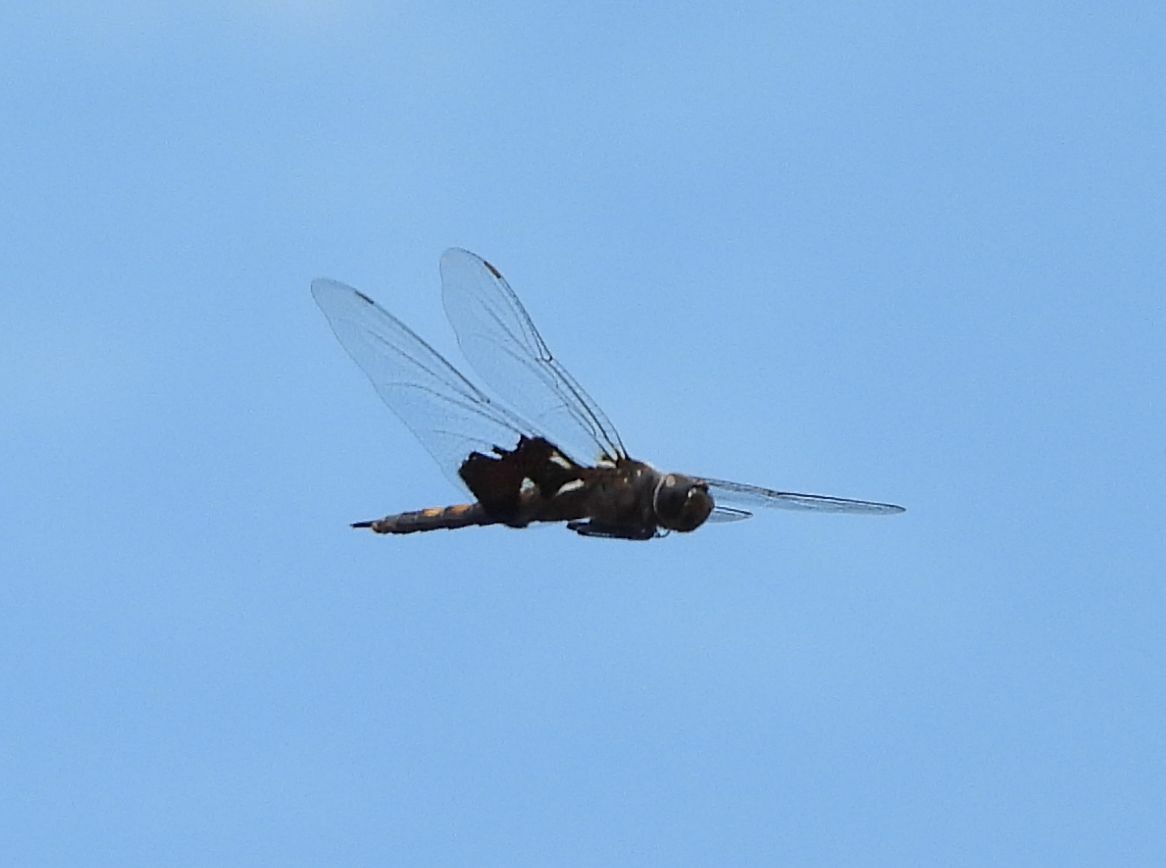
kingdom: Animalia
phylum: Arthropoda
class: Insecta
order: Odonata
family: Libellulidae
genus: Tramea
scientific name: Tramea lacerata
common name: Black saddlebags
